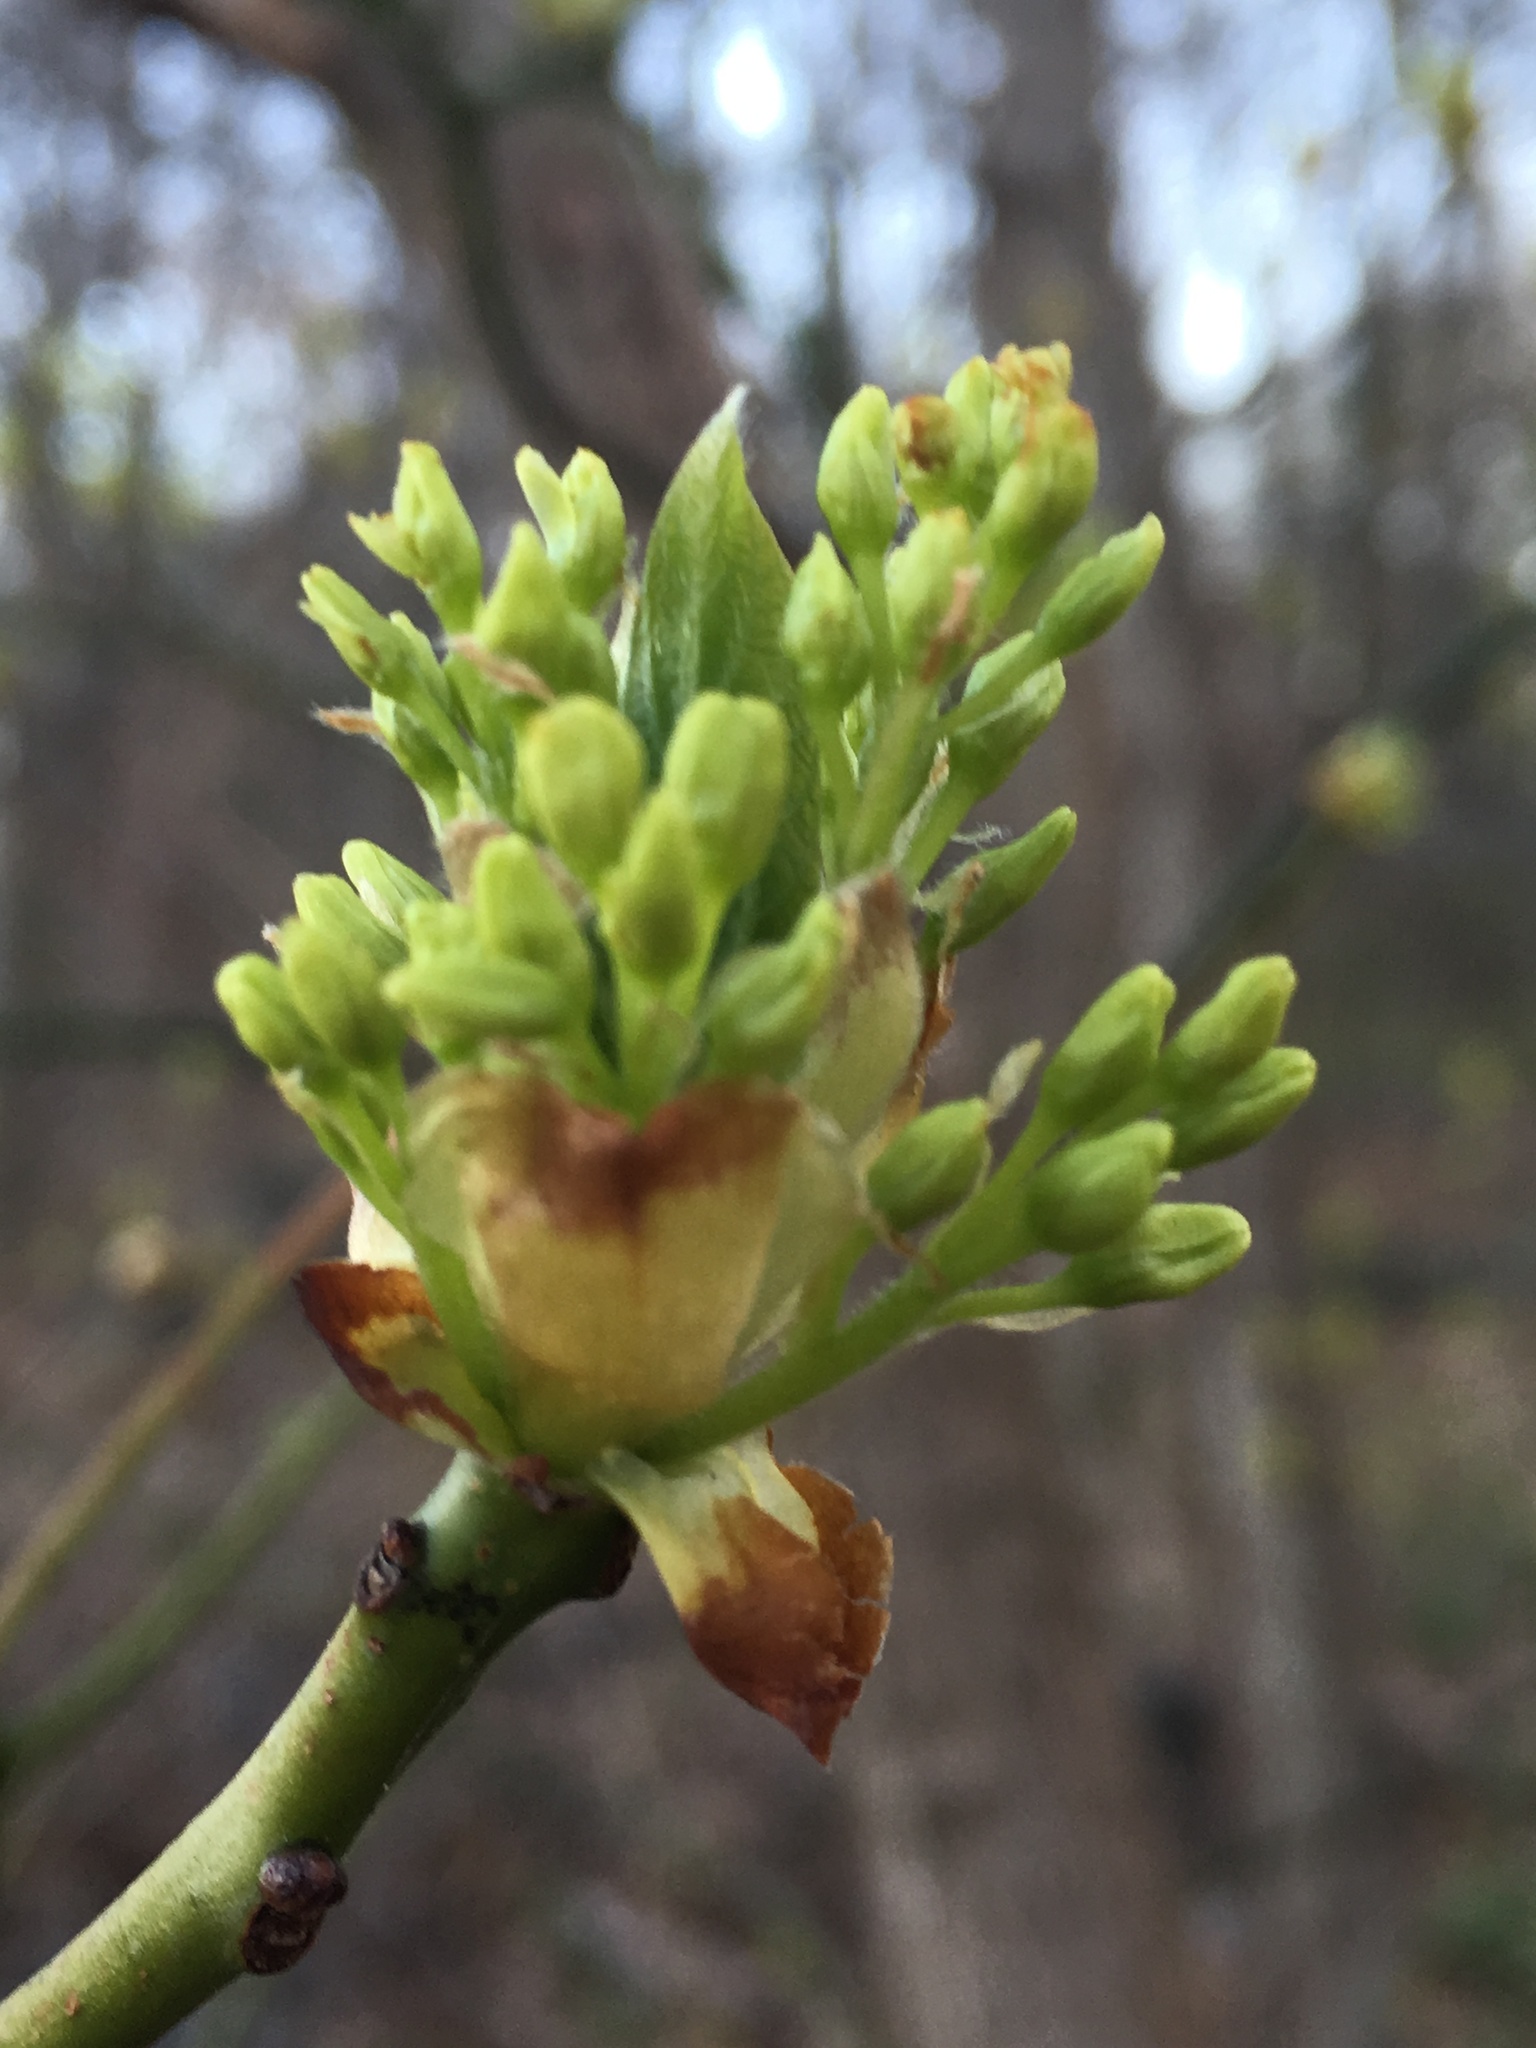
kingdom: Plantae
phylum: Tracheophyta
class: Magnoliopsida
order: Laurales
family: Lauraceae
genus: Sassafras
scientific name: Sassafras albidum
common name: Sassafras
